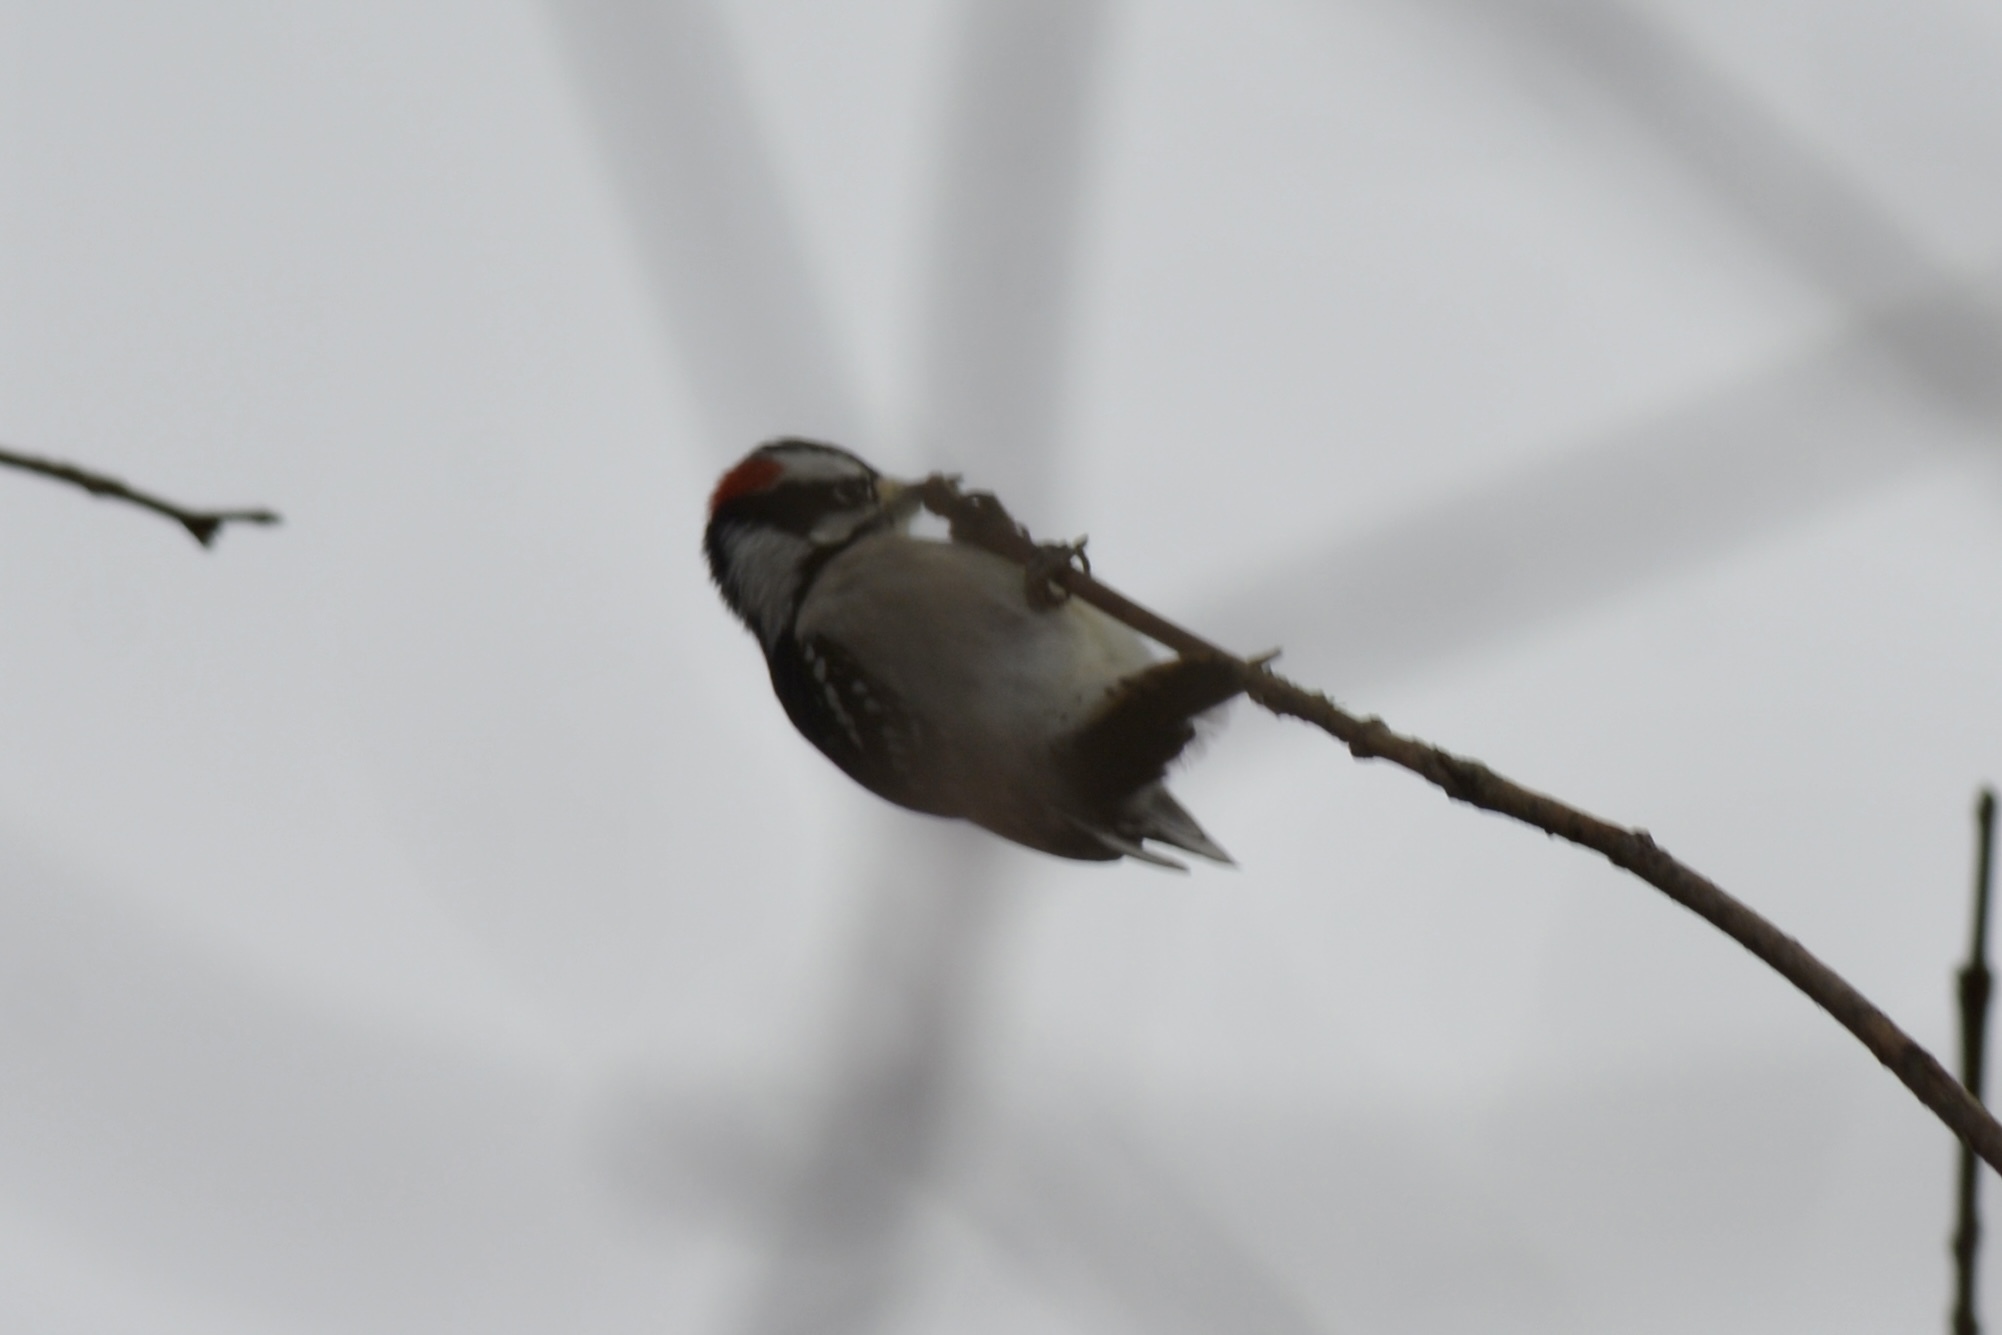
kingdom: Animalia
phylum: Chordata
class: Aves
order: Piciformes
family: Picidae
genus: Dryobates
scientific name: Dryobates pubescens
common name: Downy woodpecker
